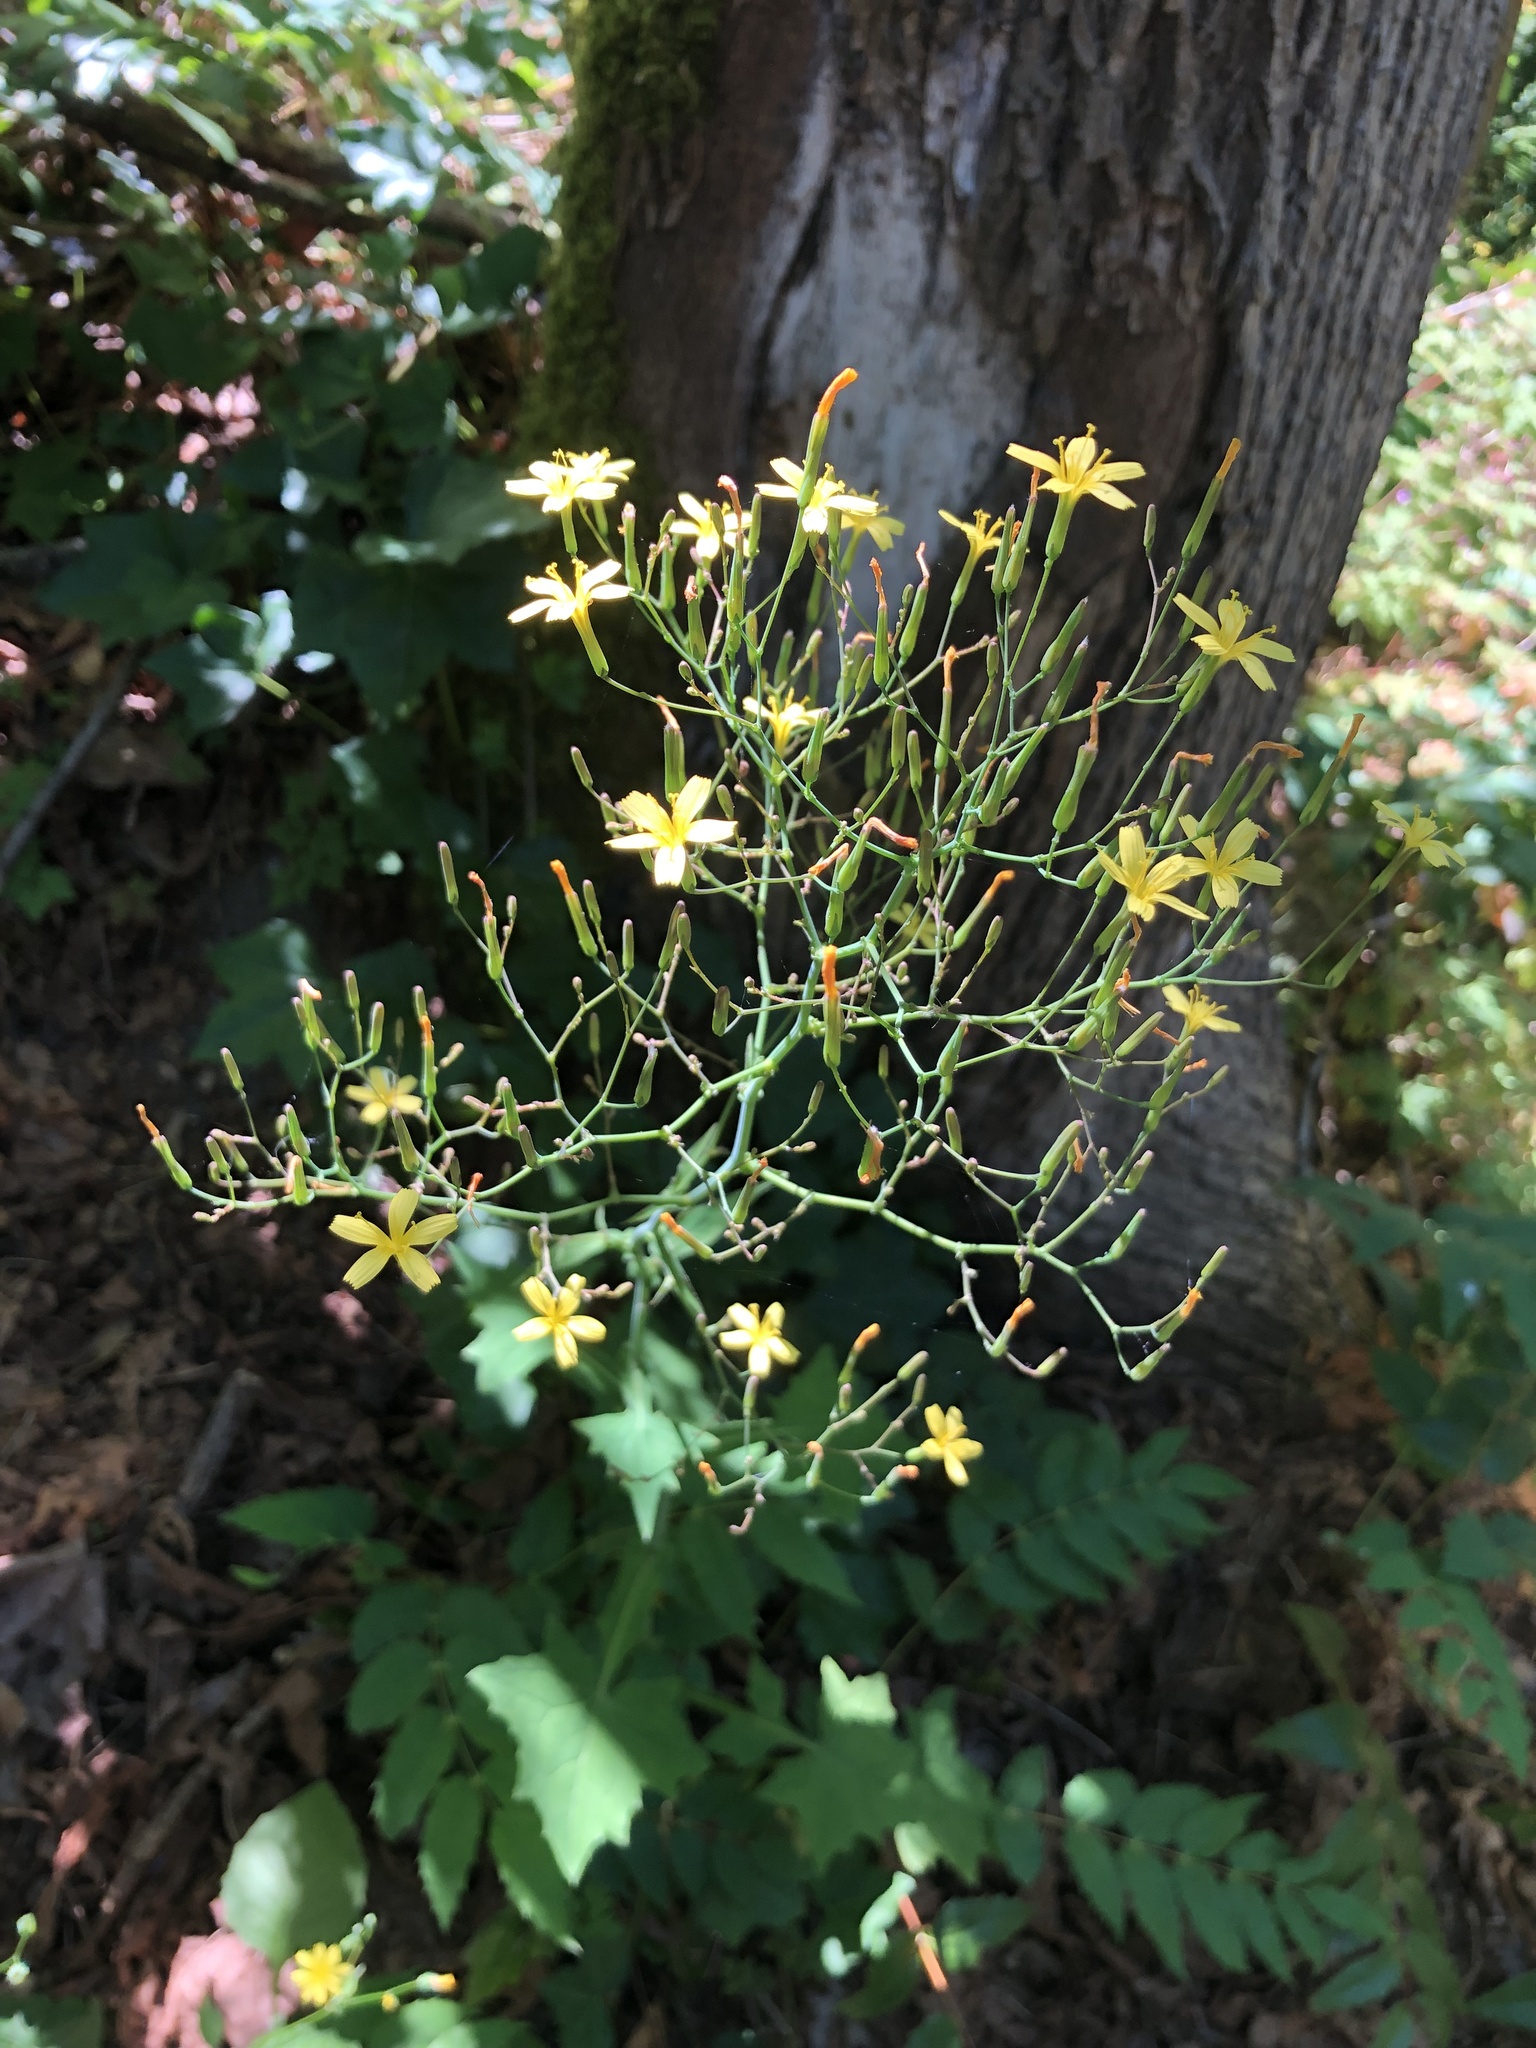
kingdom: Plantae
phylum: Tracheophyta
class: Magnoliopsida
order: Asterales
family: Asteraceae
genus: Mycelis
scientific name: Mycelis muralis
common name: Wall lettuce
